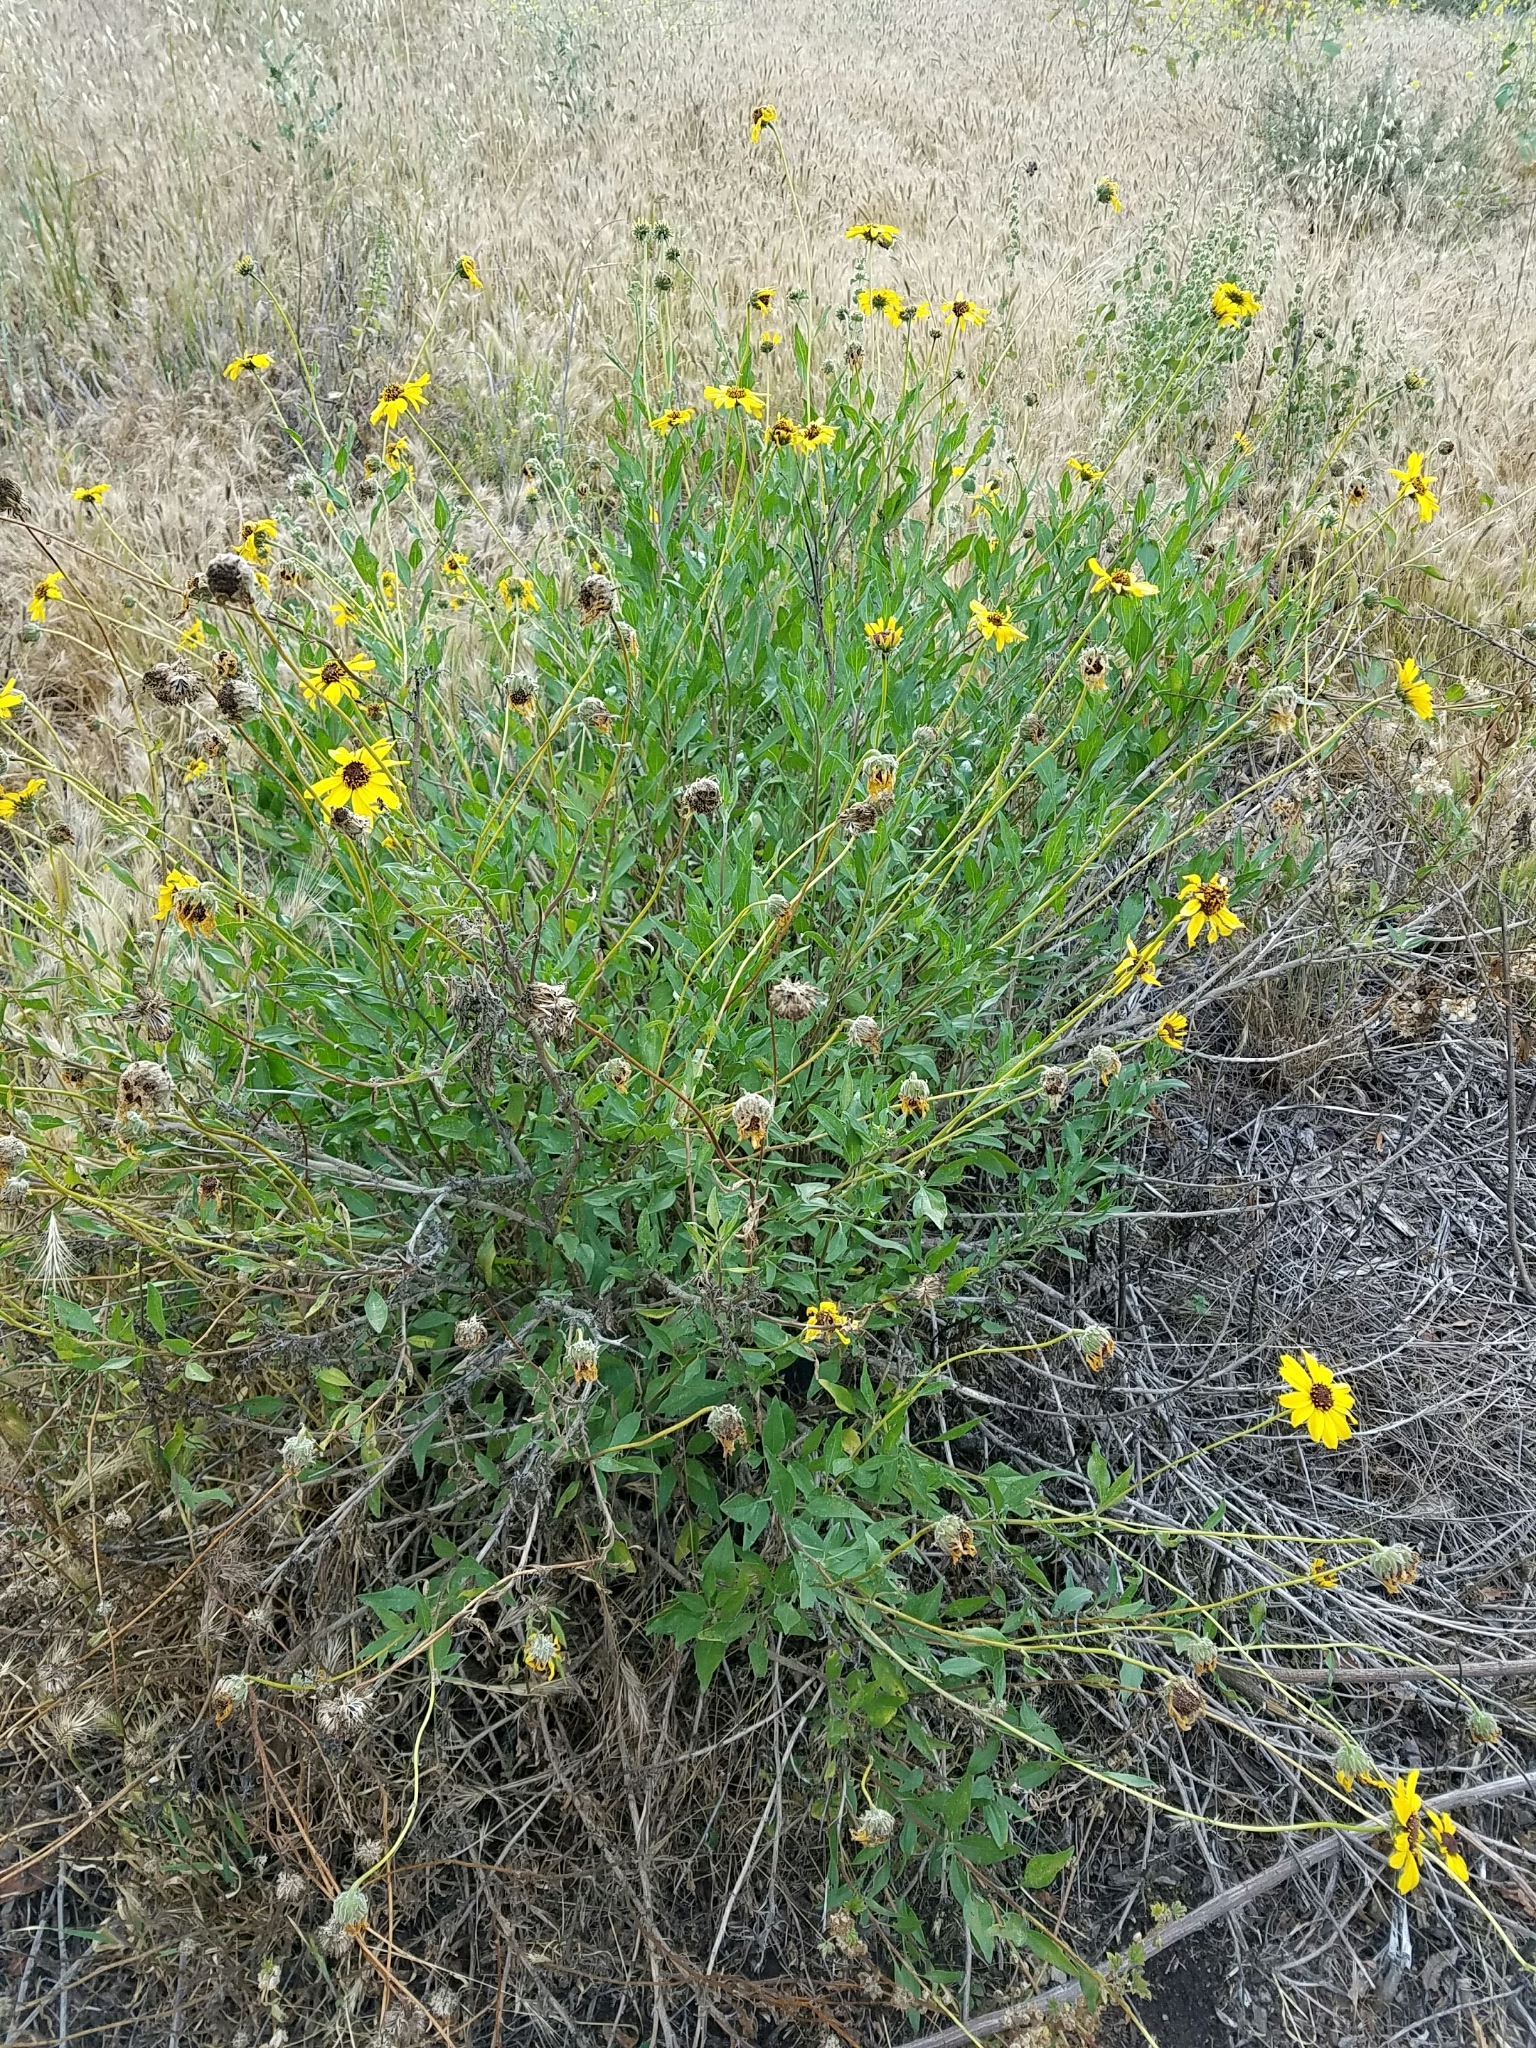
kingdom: Plantae
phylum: Tracheophyta
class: Magnoliopsida
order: Asterales
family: Asteraceae
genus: Encelia
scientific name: Encelia californica
